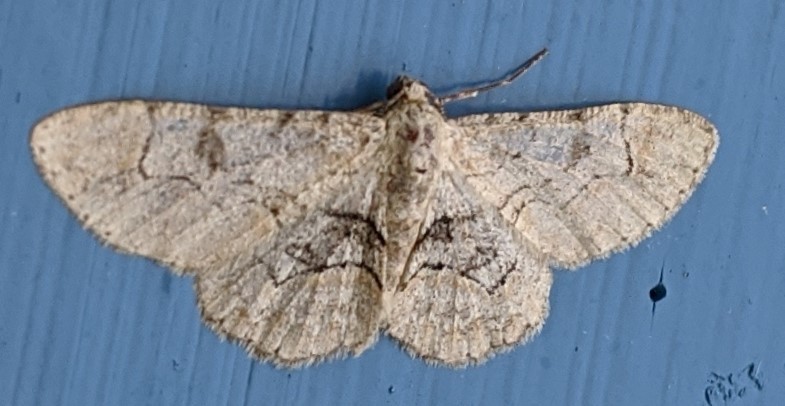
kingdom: Animalia
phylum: Arthropoda
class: Insecta
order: Lepidoptera
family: Geometridae
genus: Iridopsis
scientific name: Iridopsis larvaria
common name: Bent-line gray
